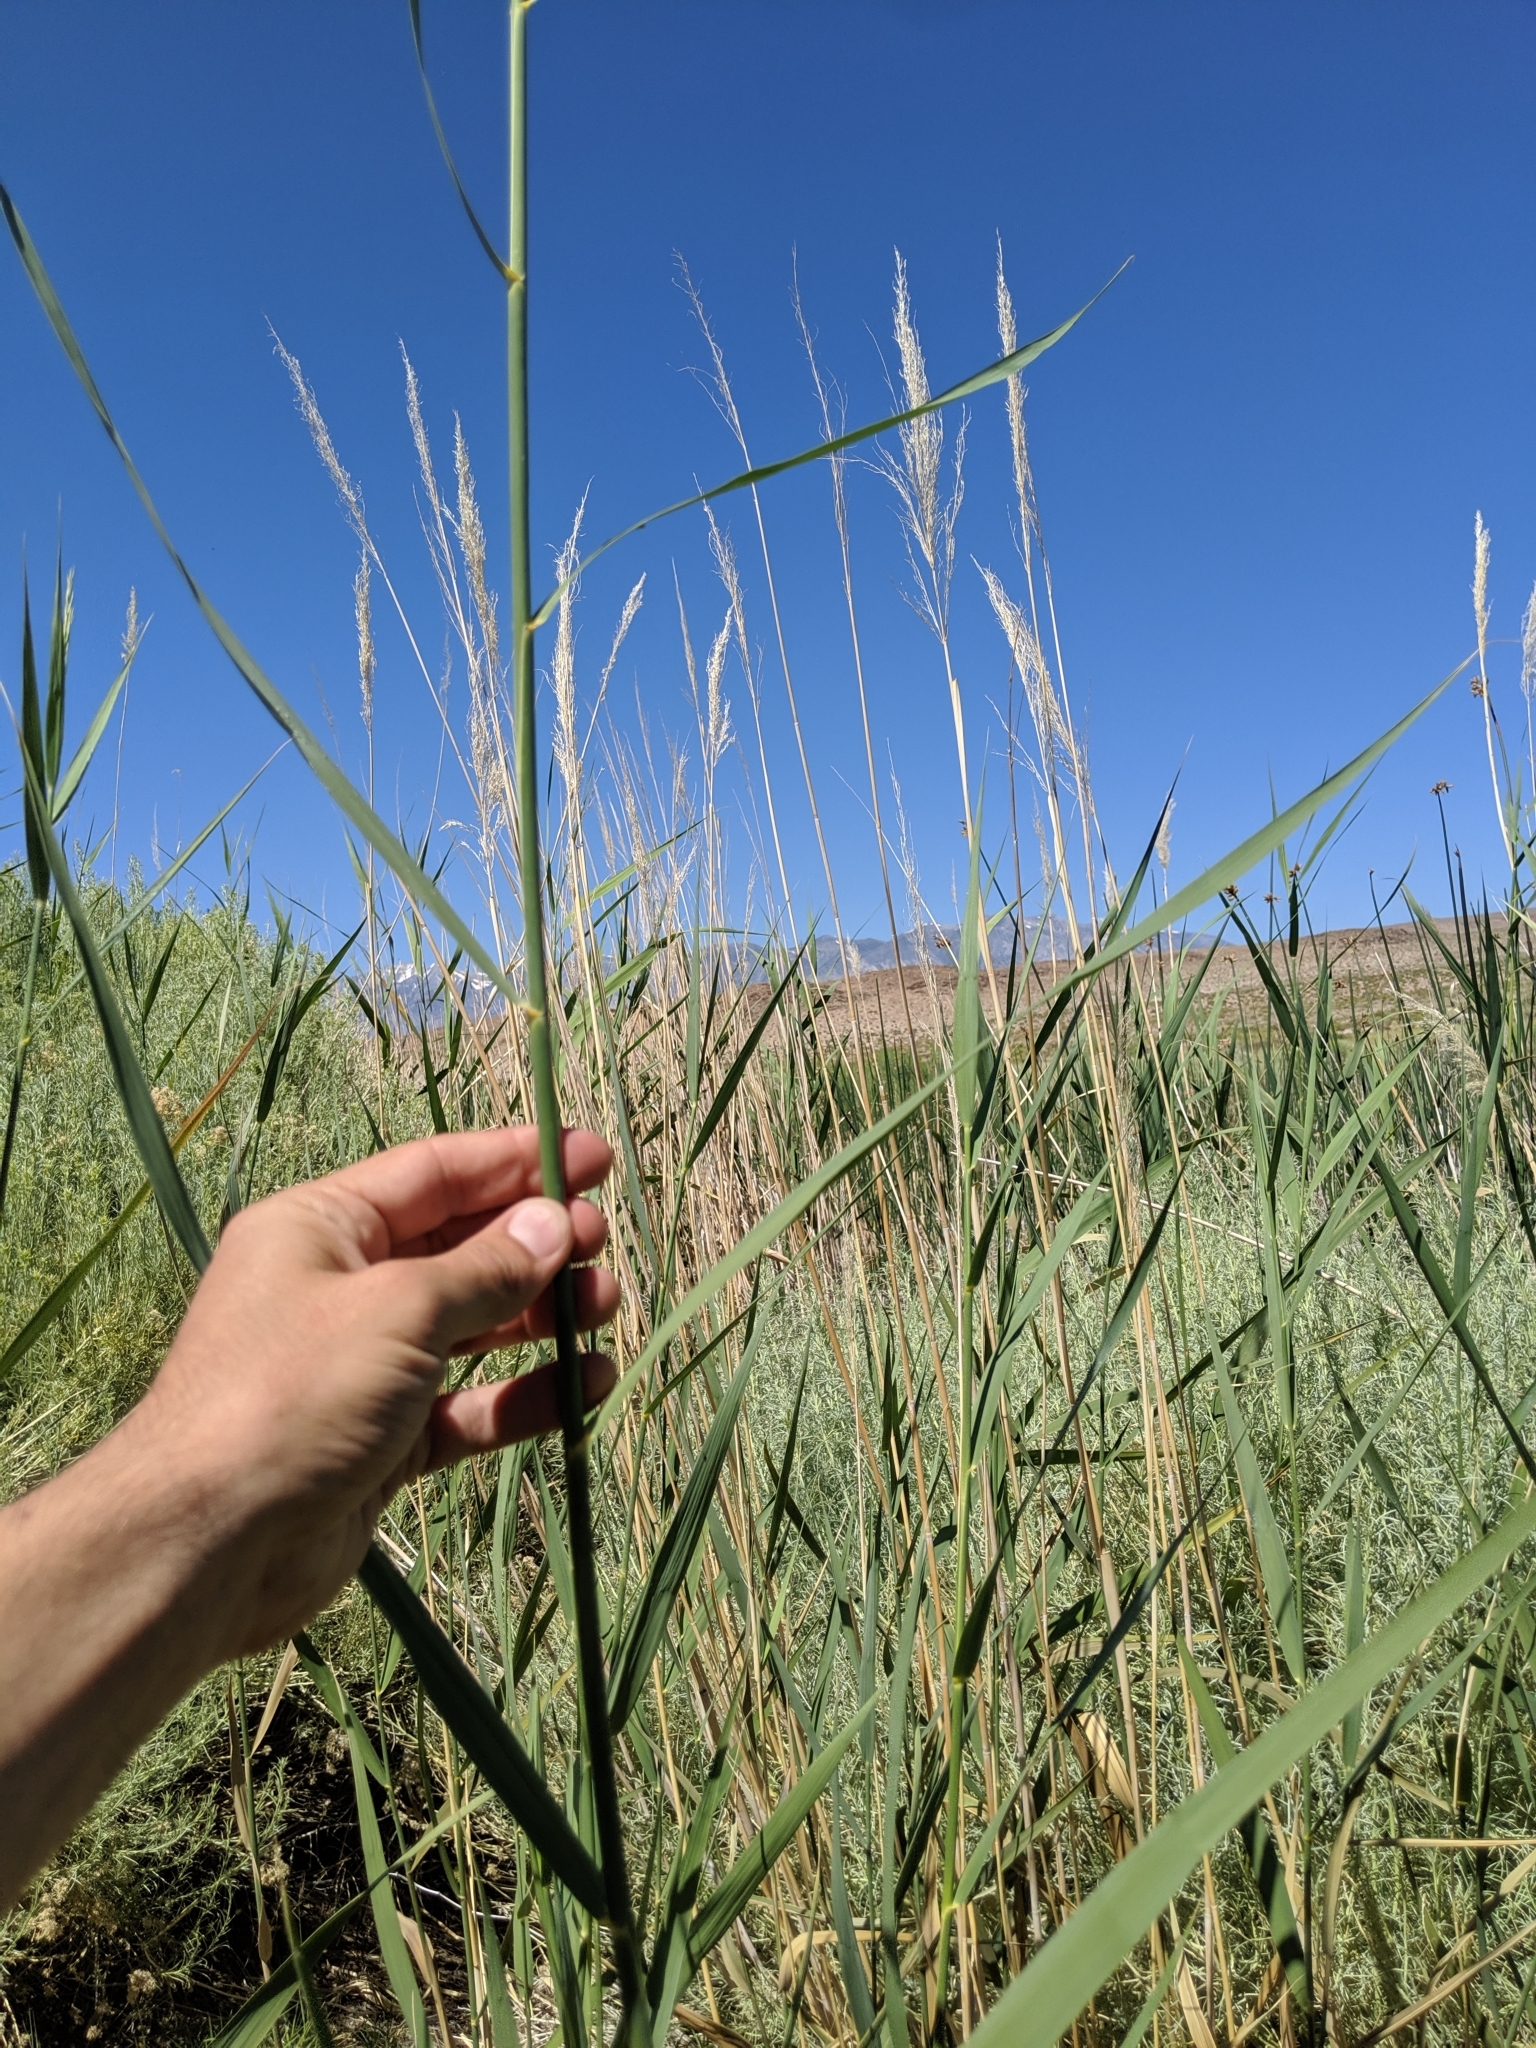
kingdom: Plantae
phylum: Tracheophyta
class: Liliopsida
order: Poales
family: Poaceae
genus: Phragmites
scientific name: Phragmites australis
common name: Common reed
